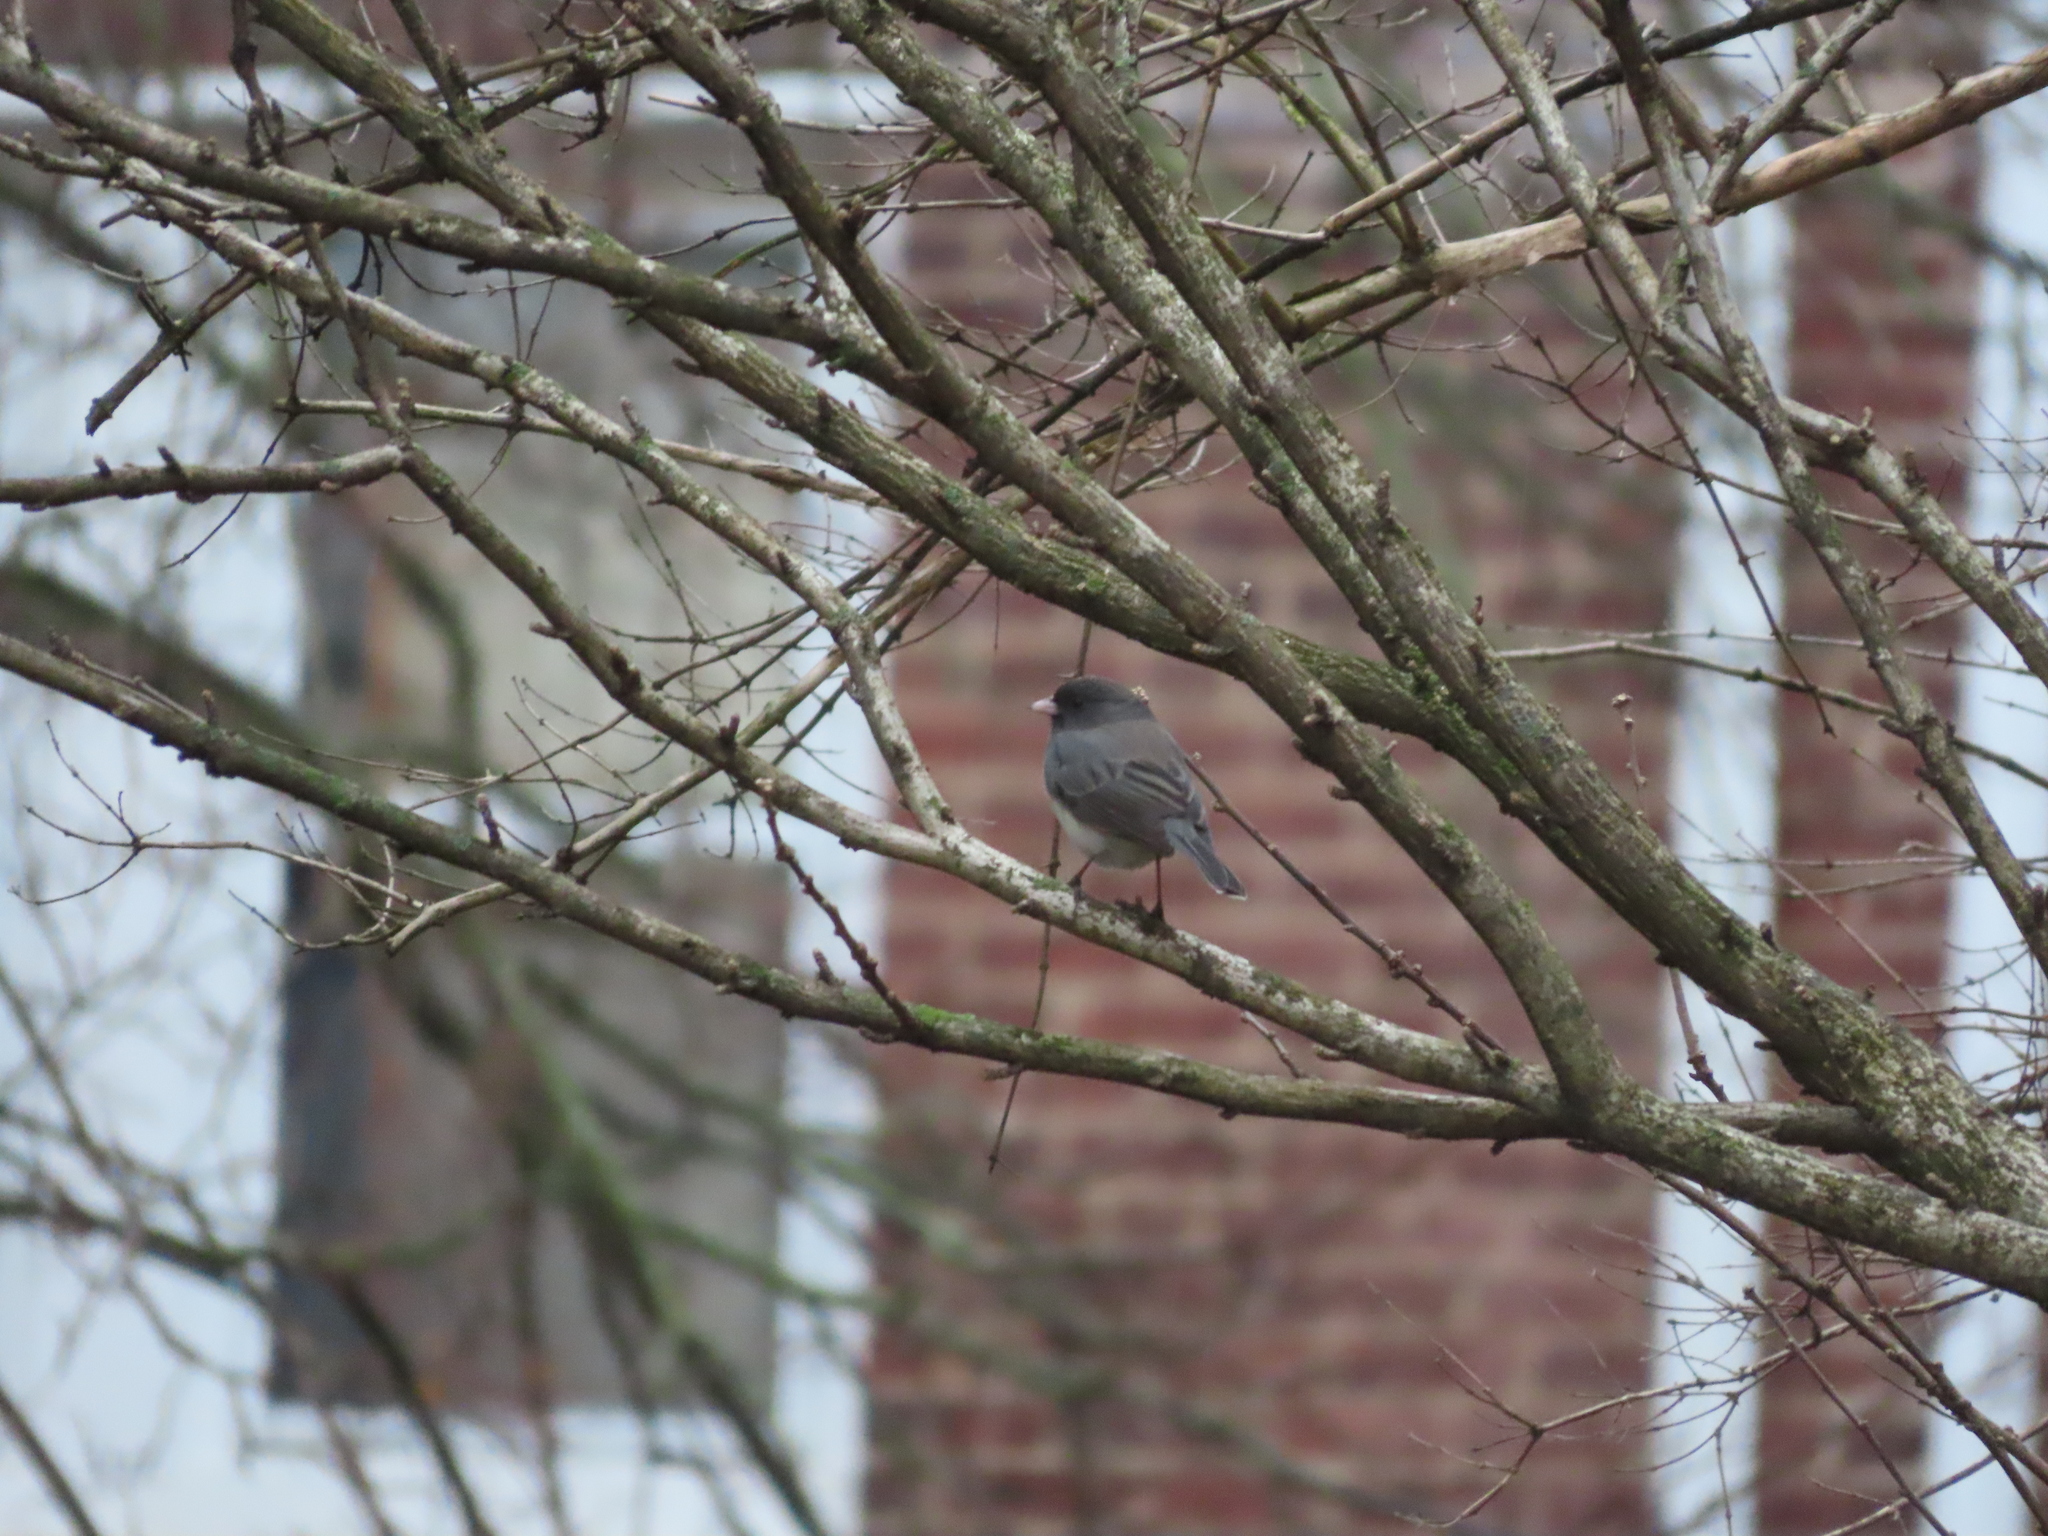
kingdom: Animalia
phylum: Chordata
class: Aves
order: Passeriformes
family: Passerellidae
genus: Junco
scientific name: Junco hyemalis
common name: Dark-eyed junco
